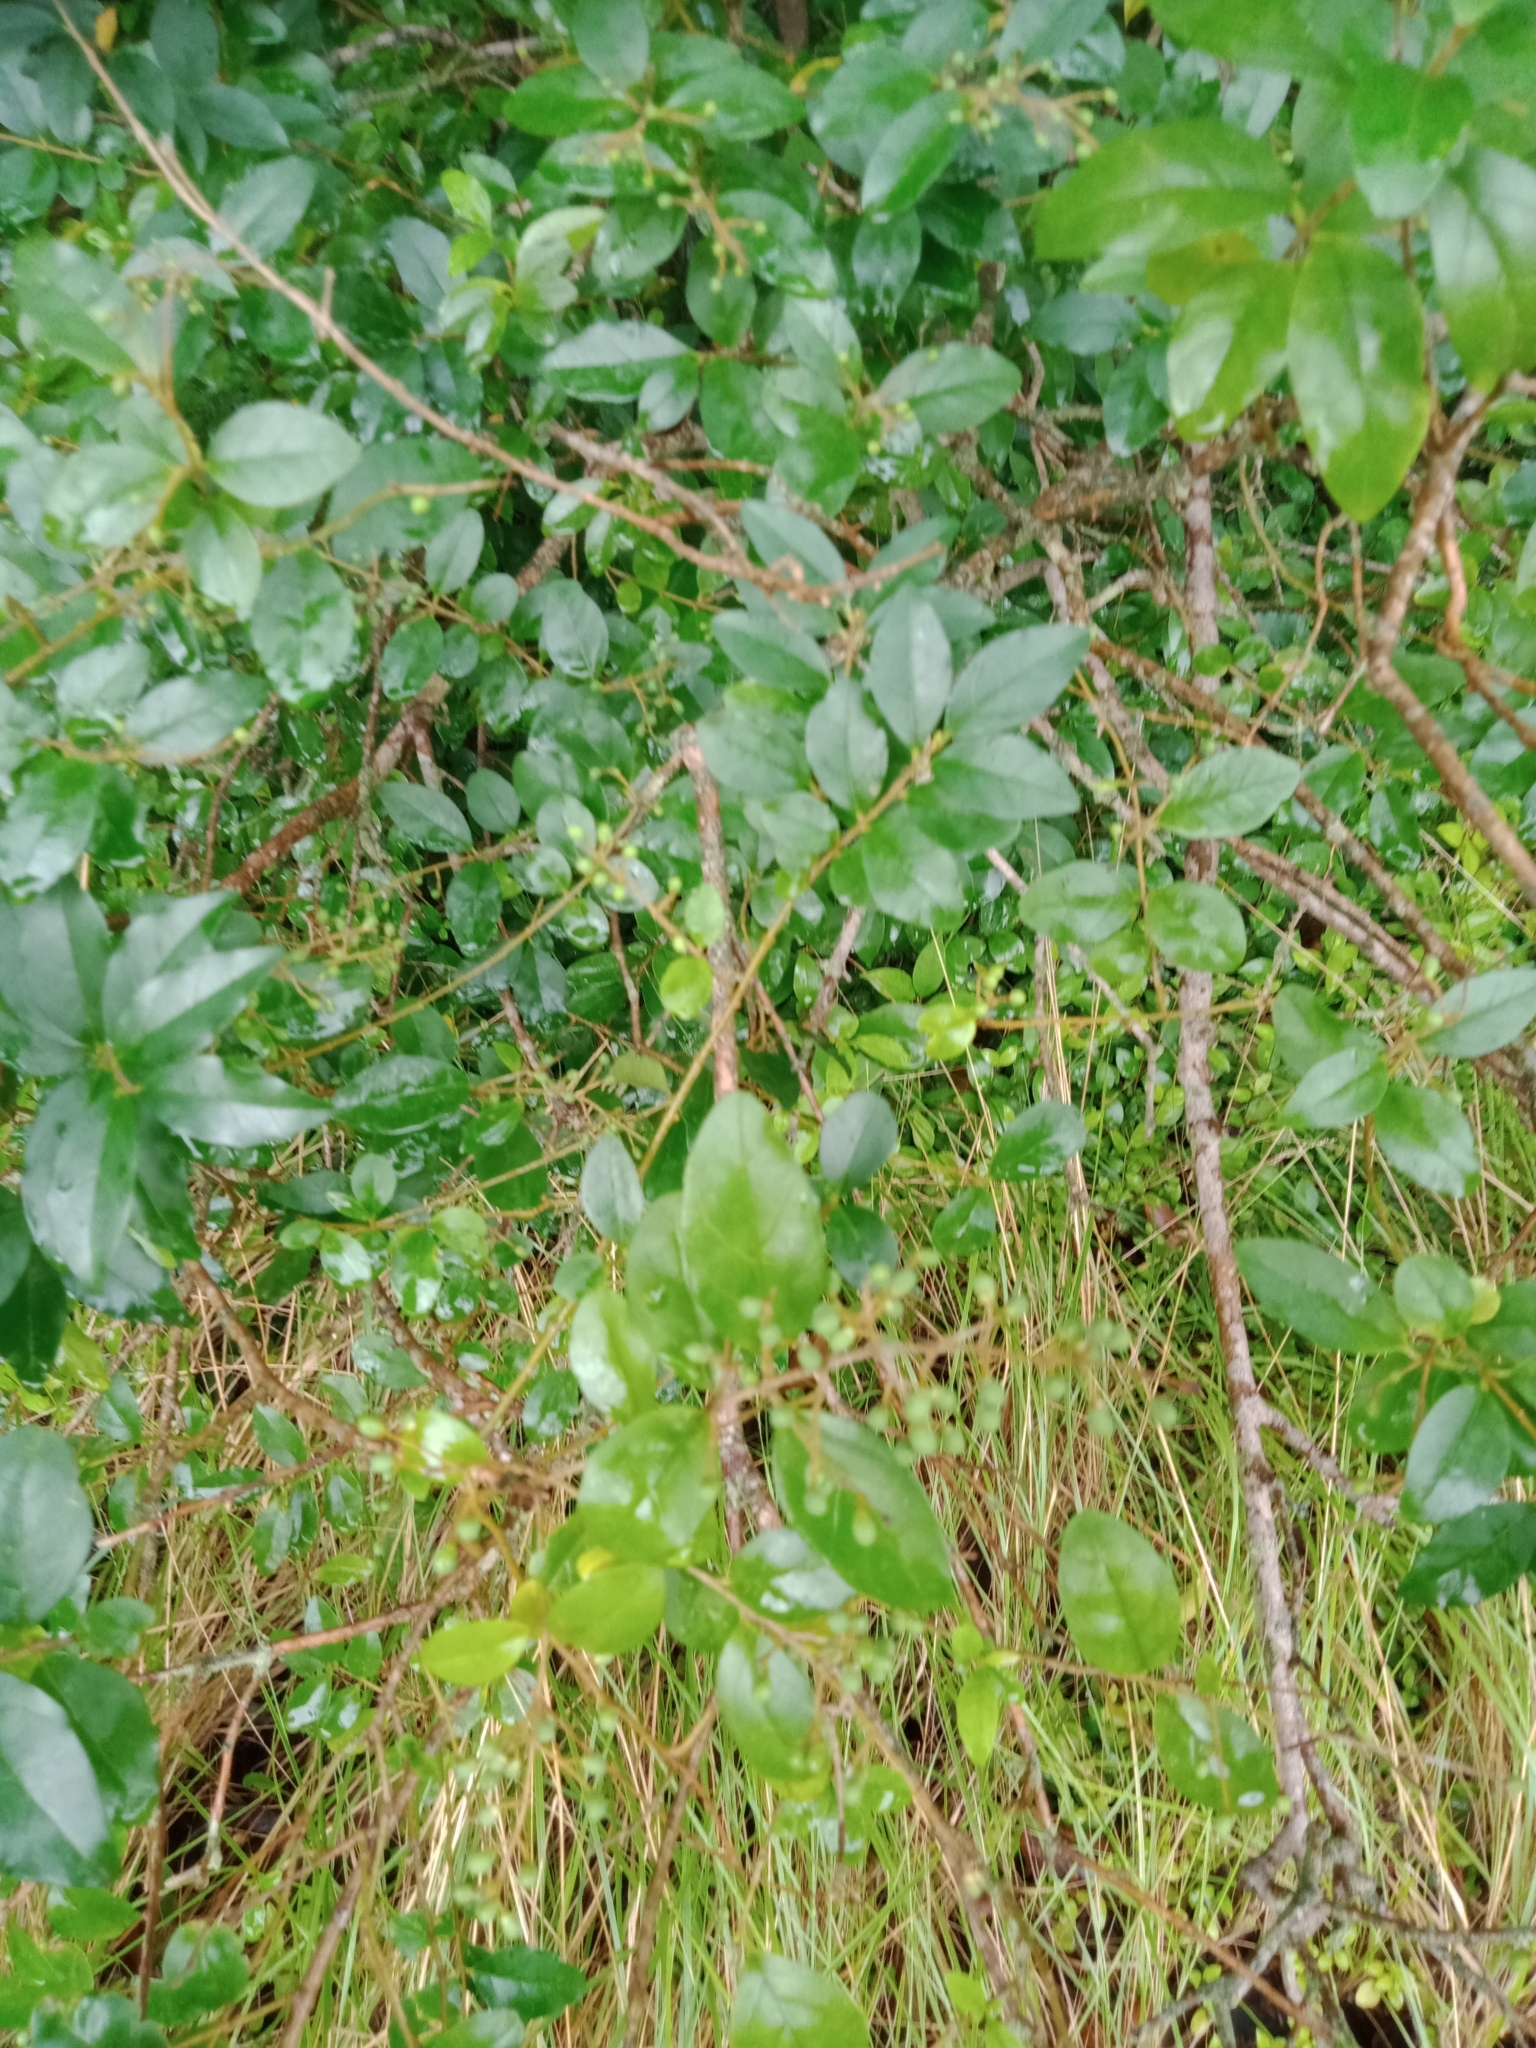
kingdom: Plantae
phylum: Tracheophyta
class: Magnoliopsida
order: Lamiales
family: Oleaceae
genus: Ligustrum
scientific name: Ligustrum sinense
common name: Chinese privet
